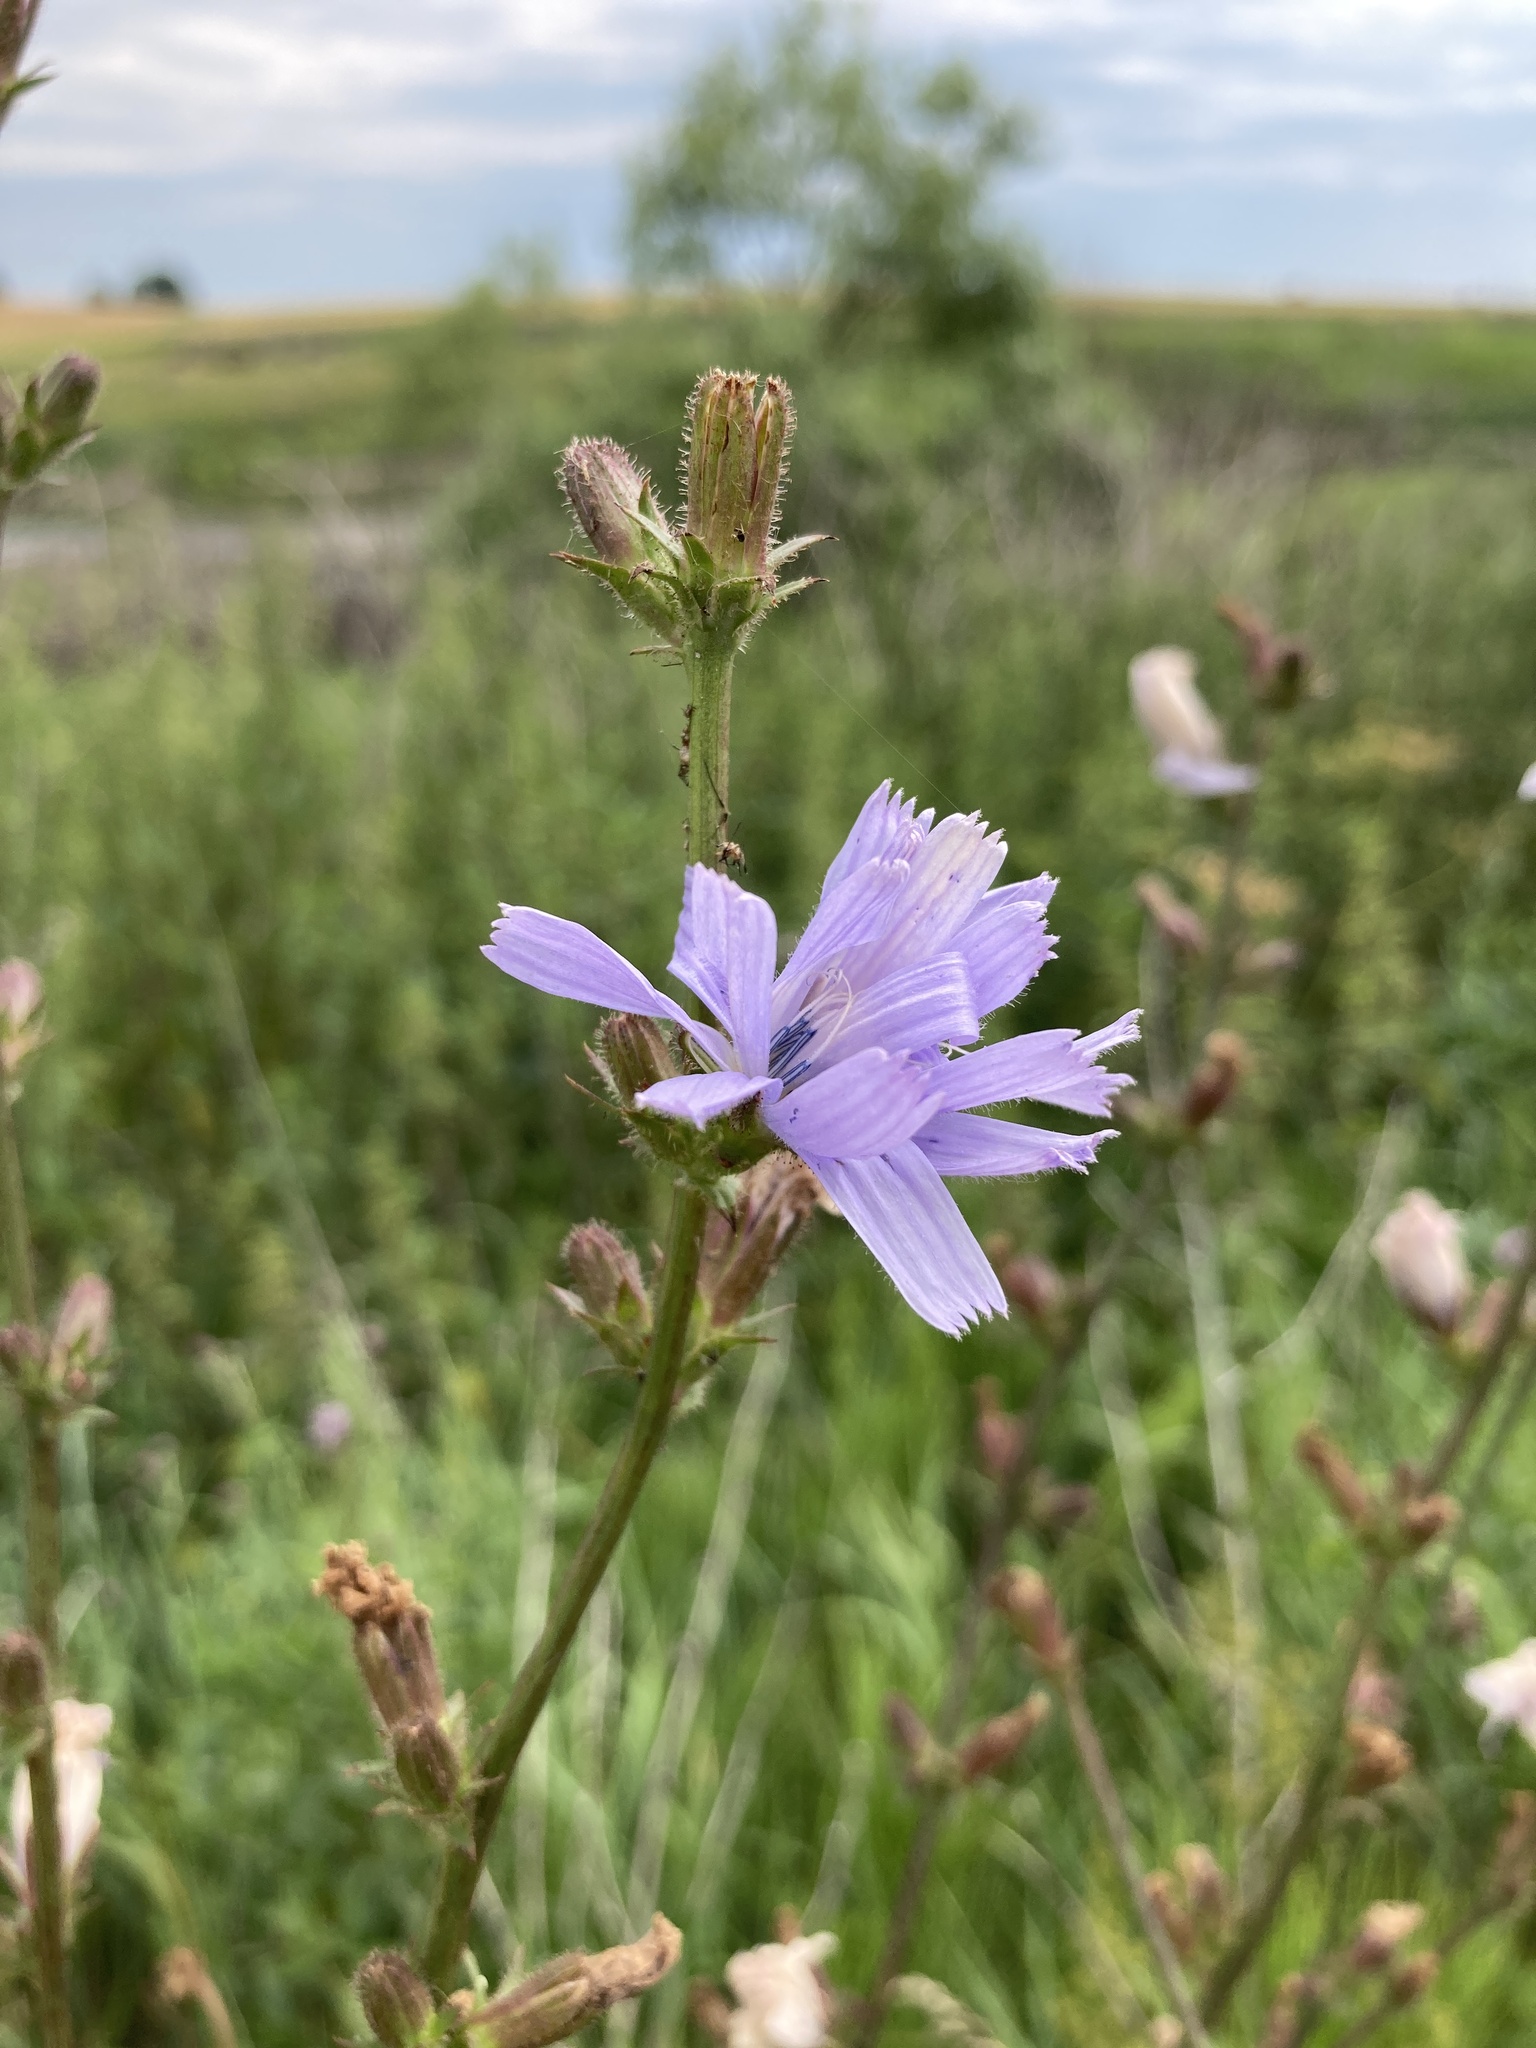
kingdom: Plantae
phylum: Tracheophyta
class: Magnoliopsida
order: Asterales
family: Asteraceae
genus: Cichorium
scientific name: Cichorium intybus
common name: Chicory
